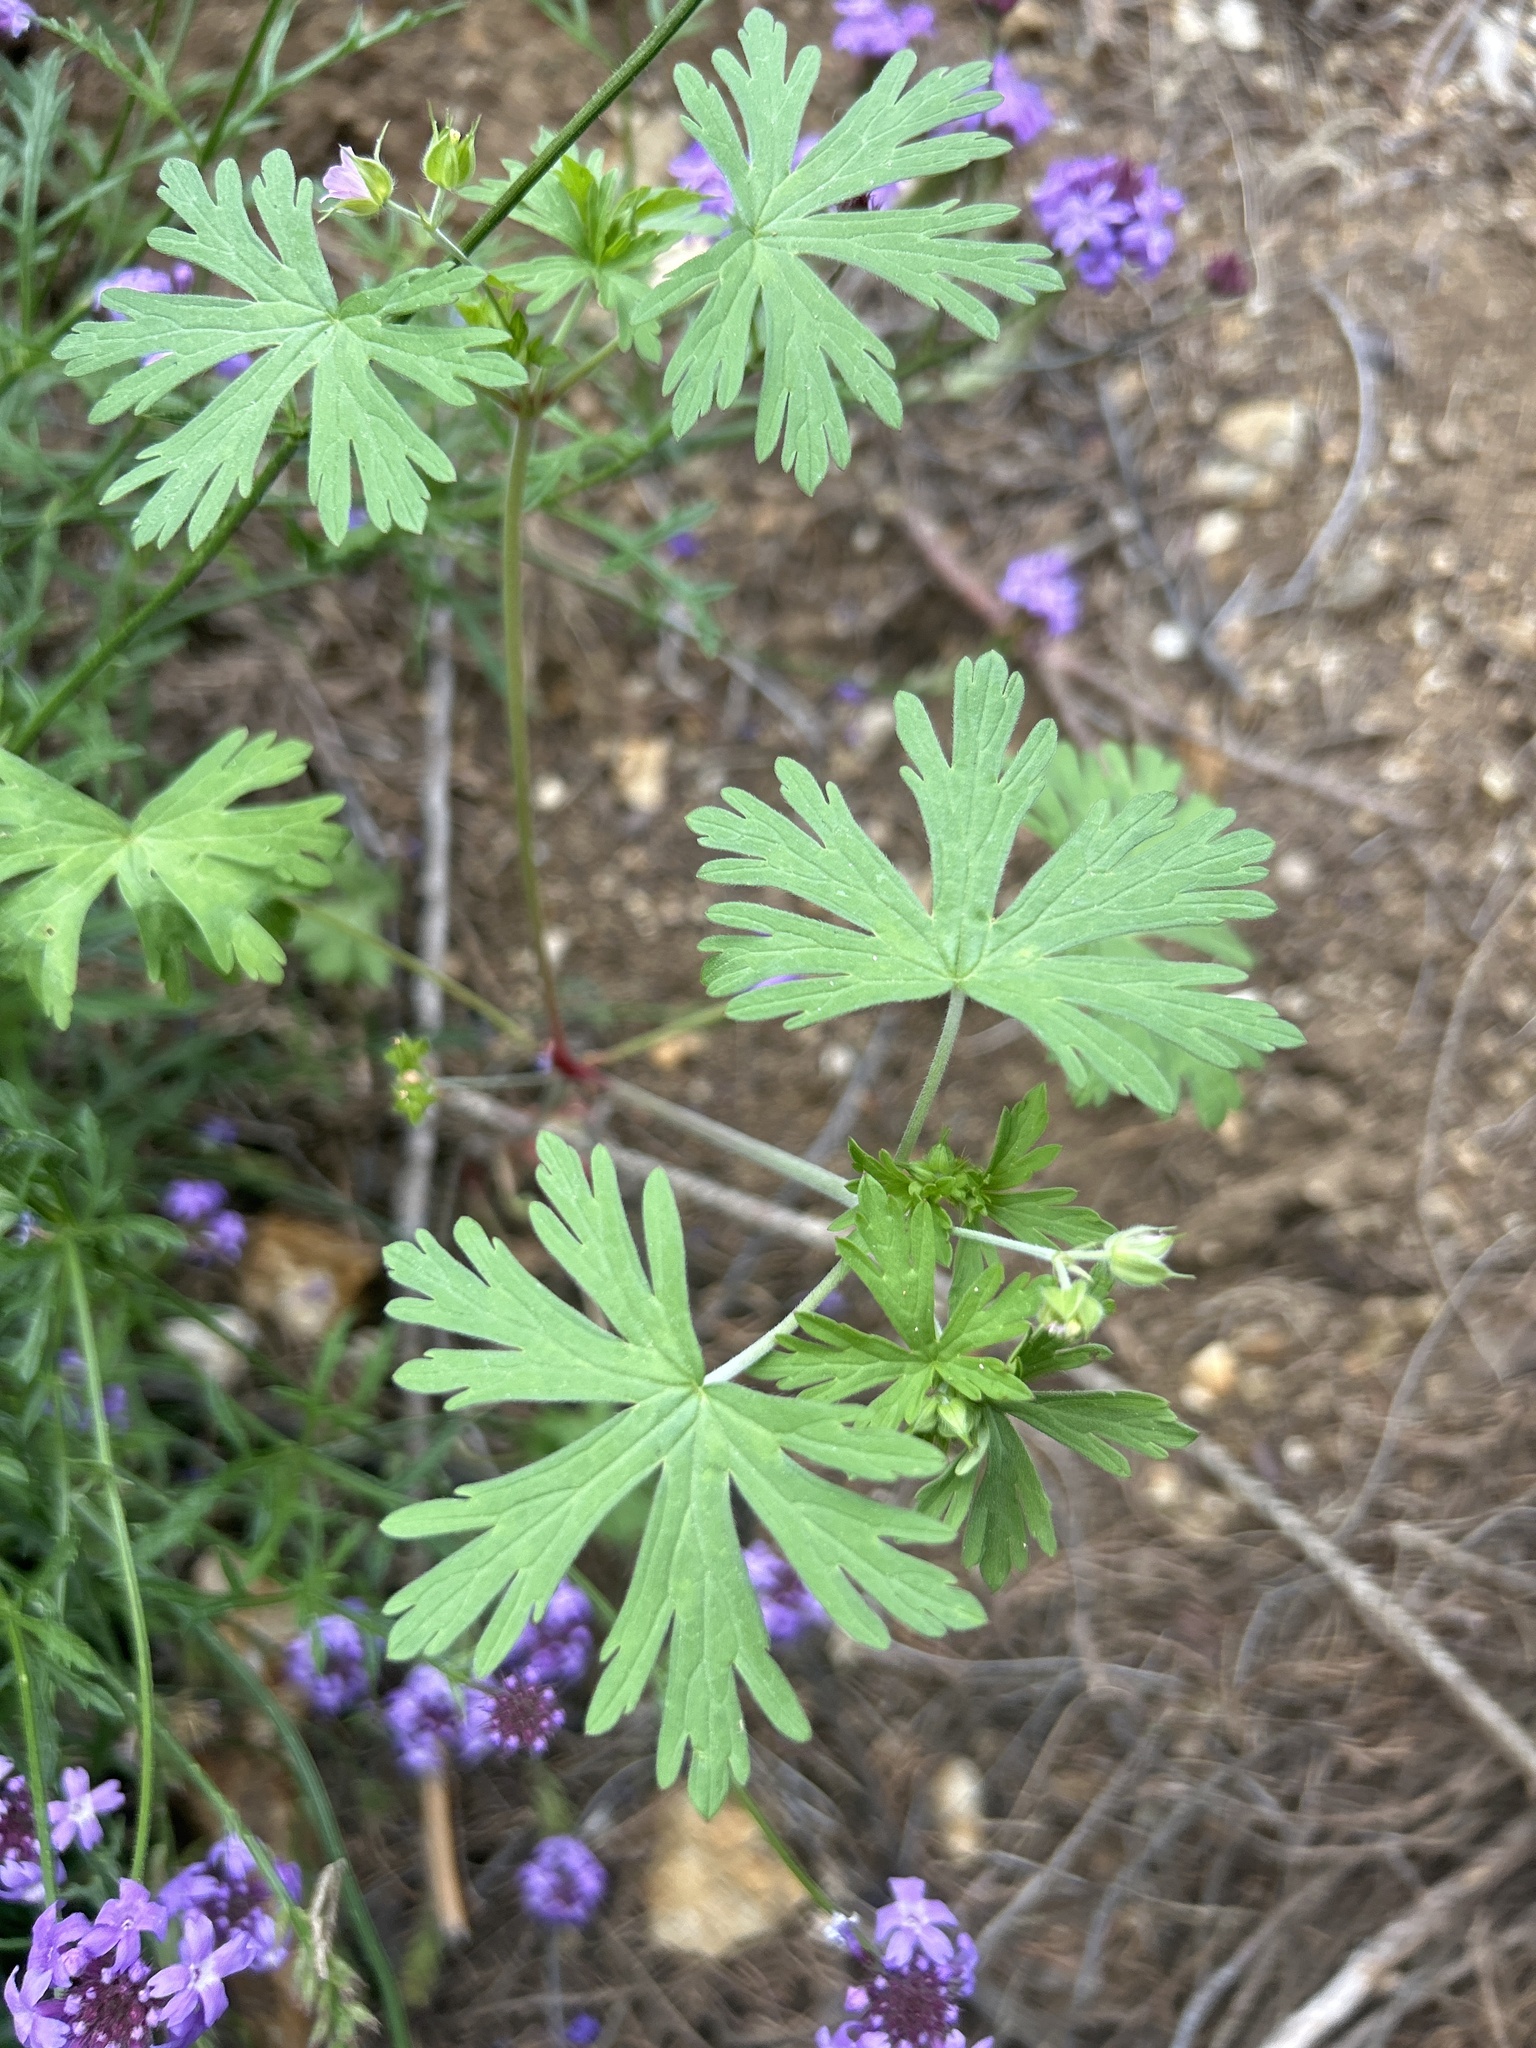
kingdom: Plantae
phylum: Tracheophyta
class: Magnoliopsida
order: Geraniales
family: Geraniaceae
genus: Geranium
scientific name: Geranium carolinianum
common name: Carolina crane's-bill
